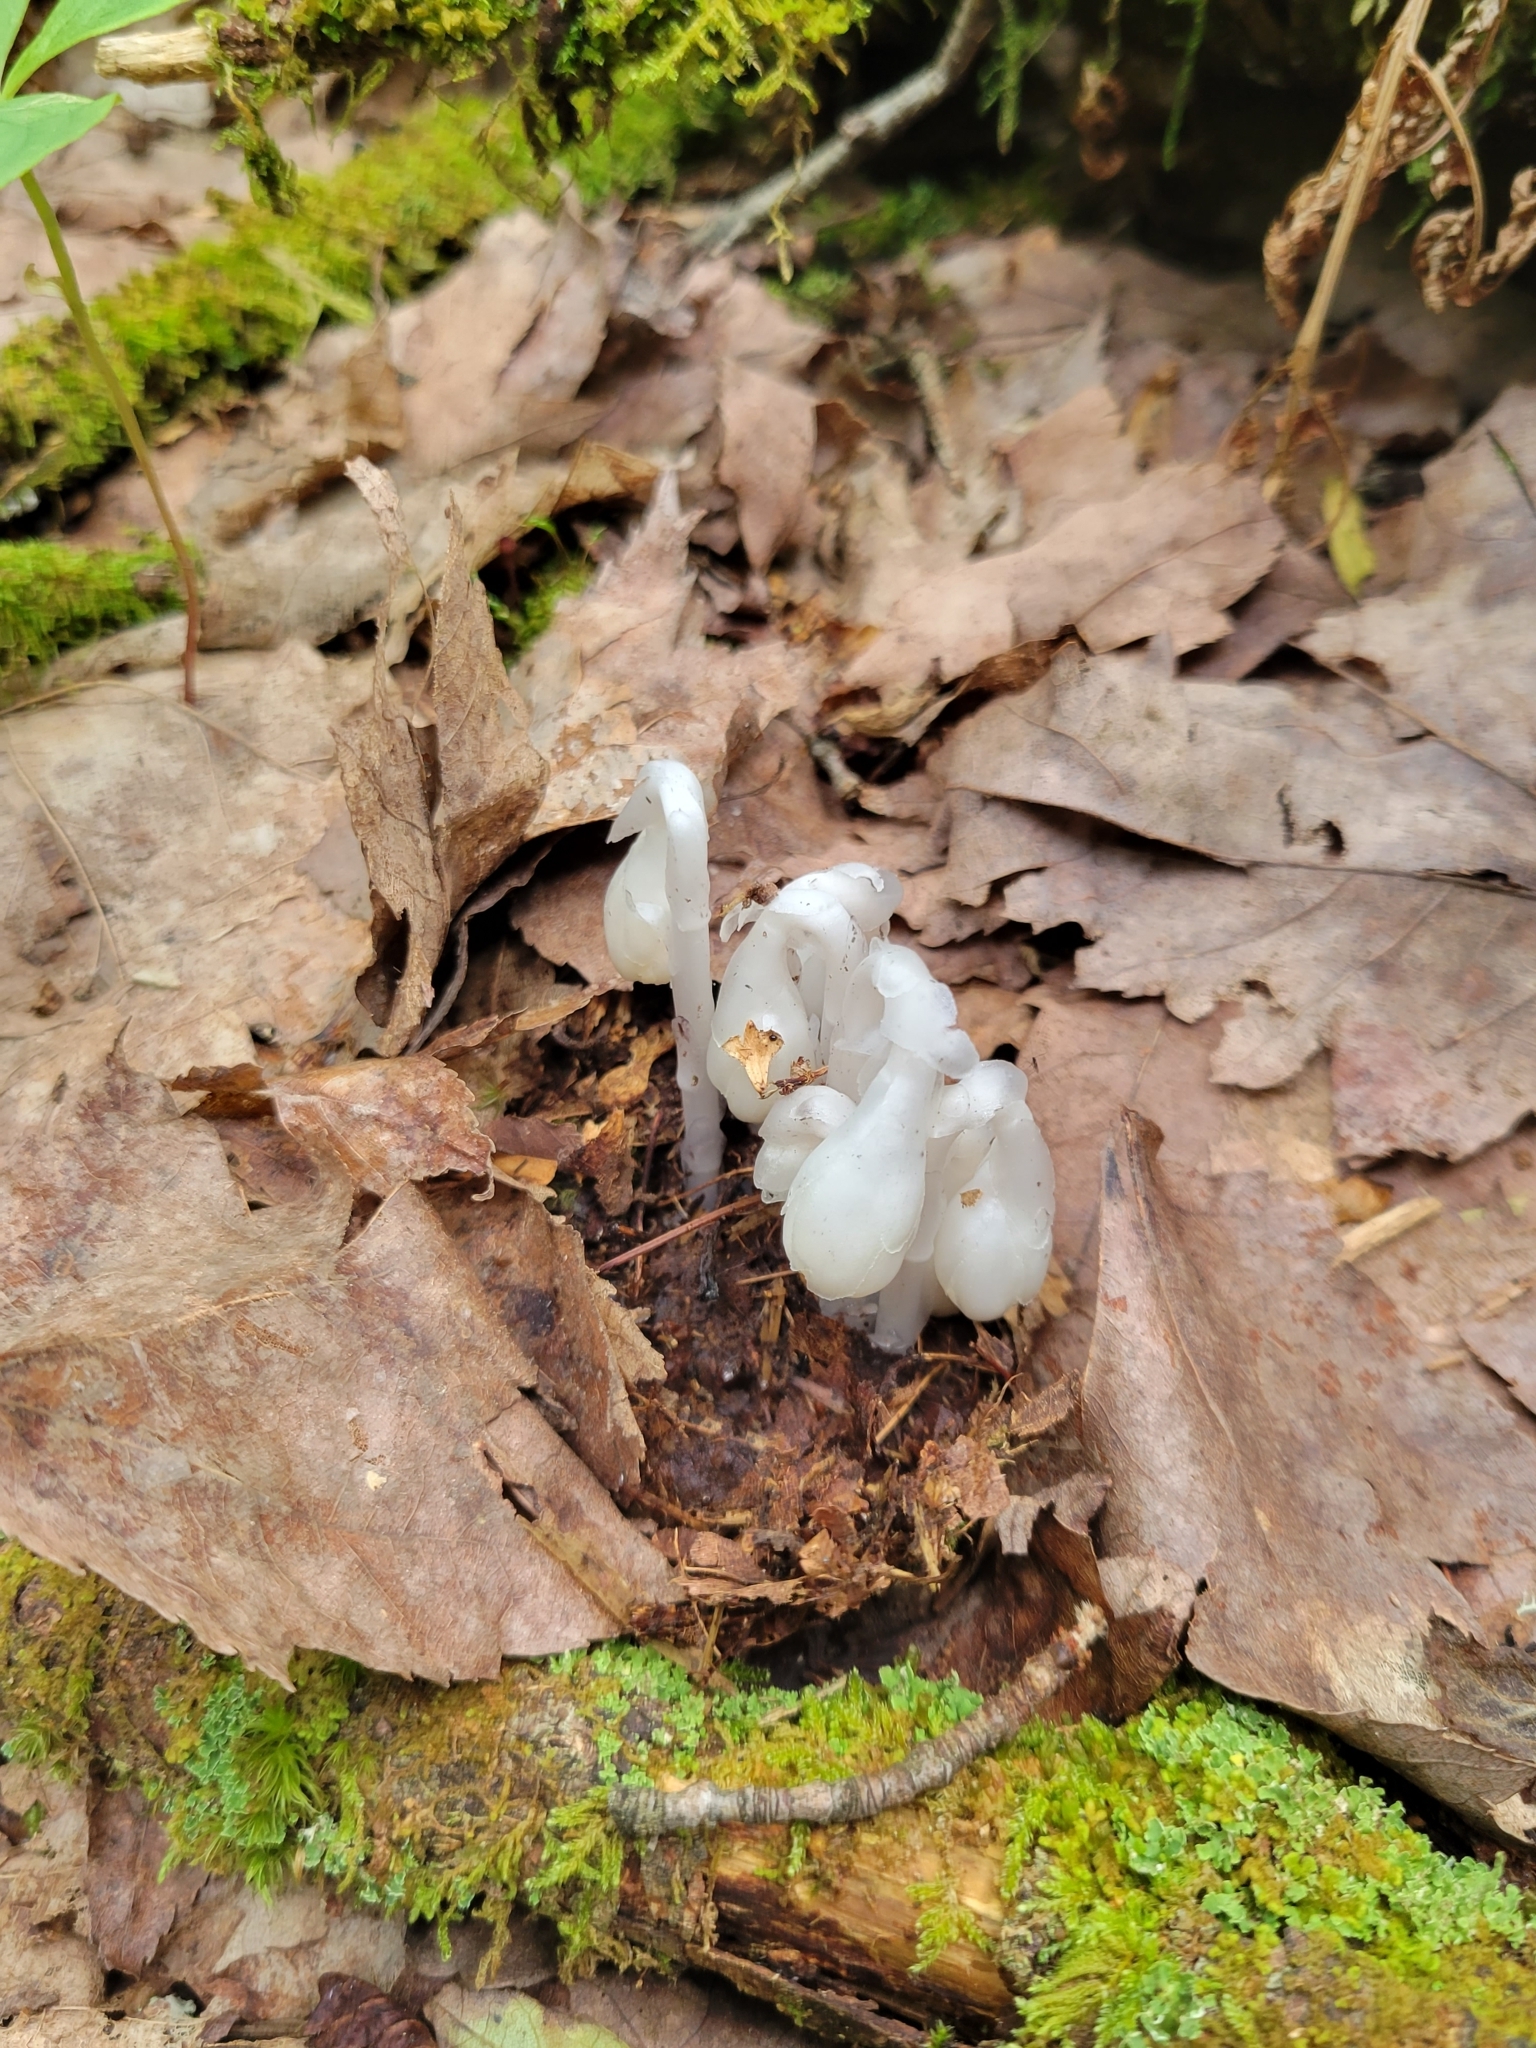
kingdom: Plantae
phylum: Tracheophyta
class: Magnoliopsida
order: Ericales
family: Ericaceae
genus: Monotropa
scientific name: Monotropa uniflora
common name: Convulsion root
